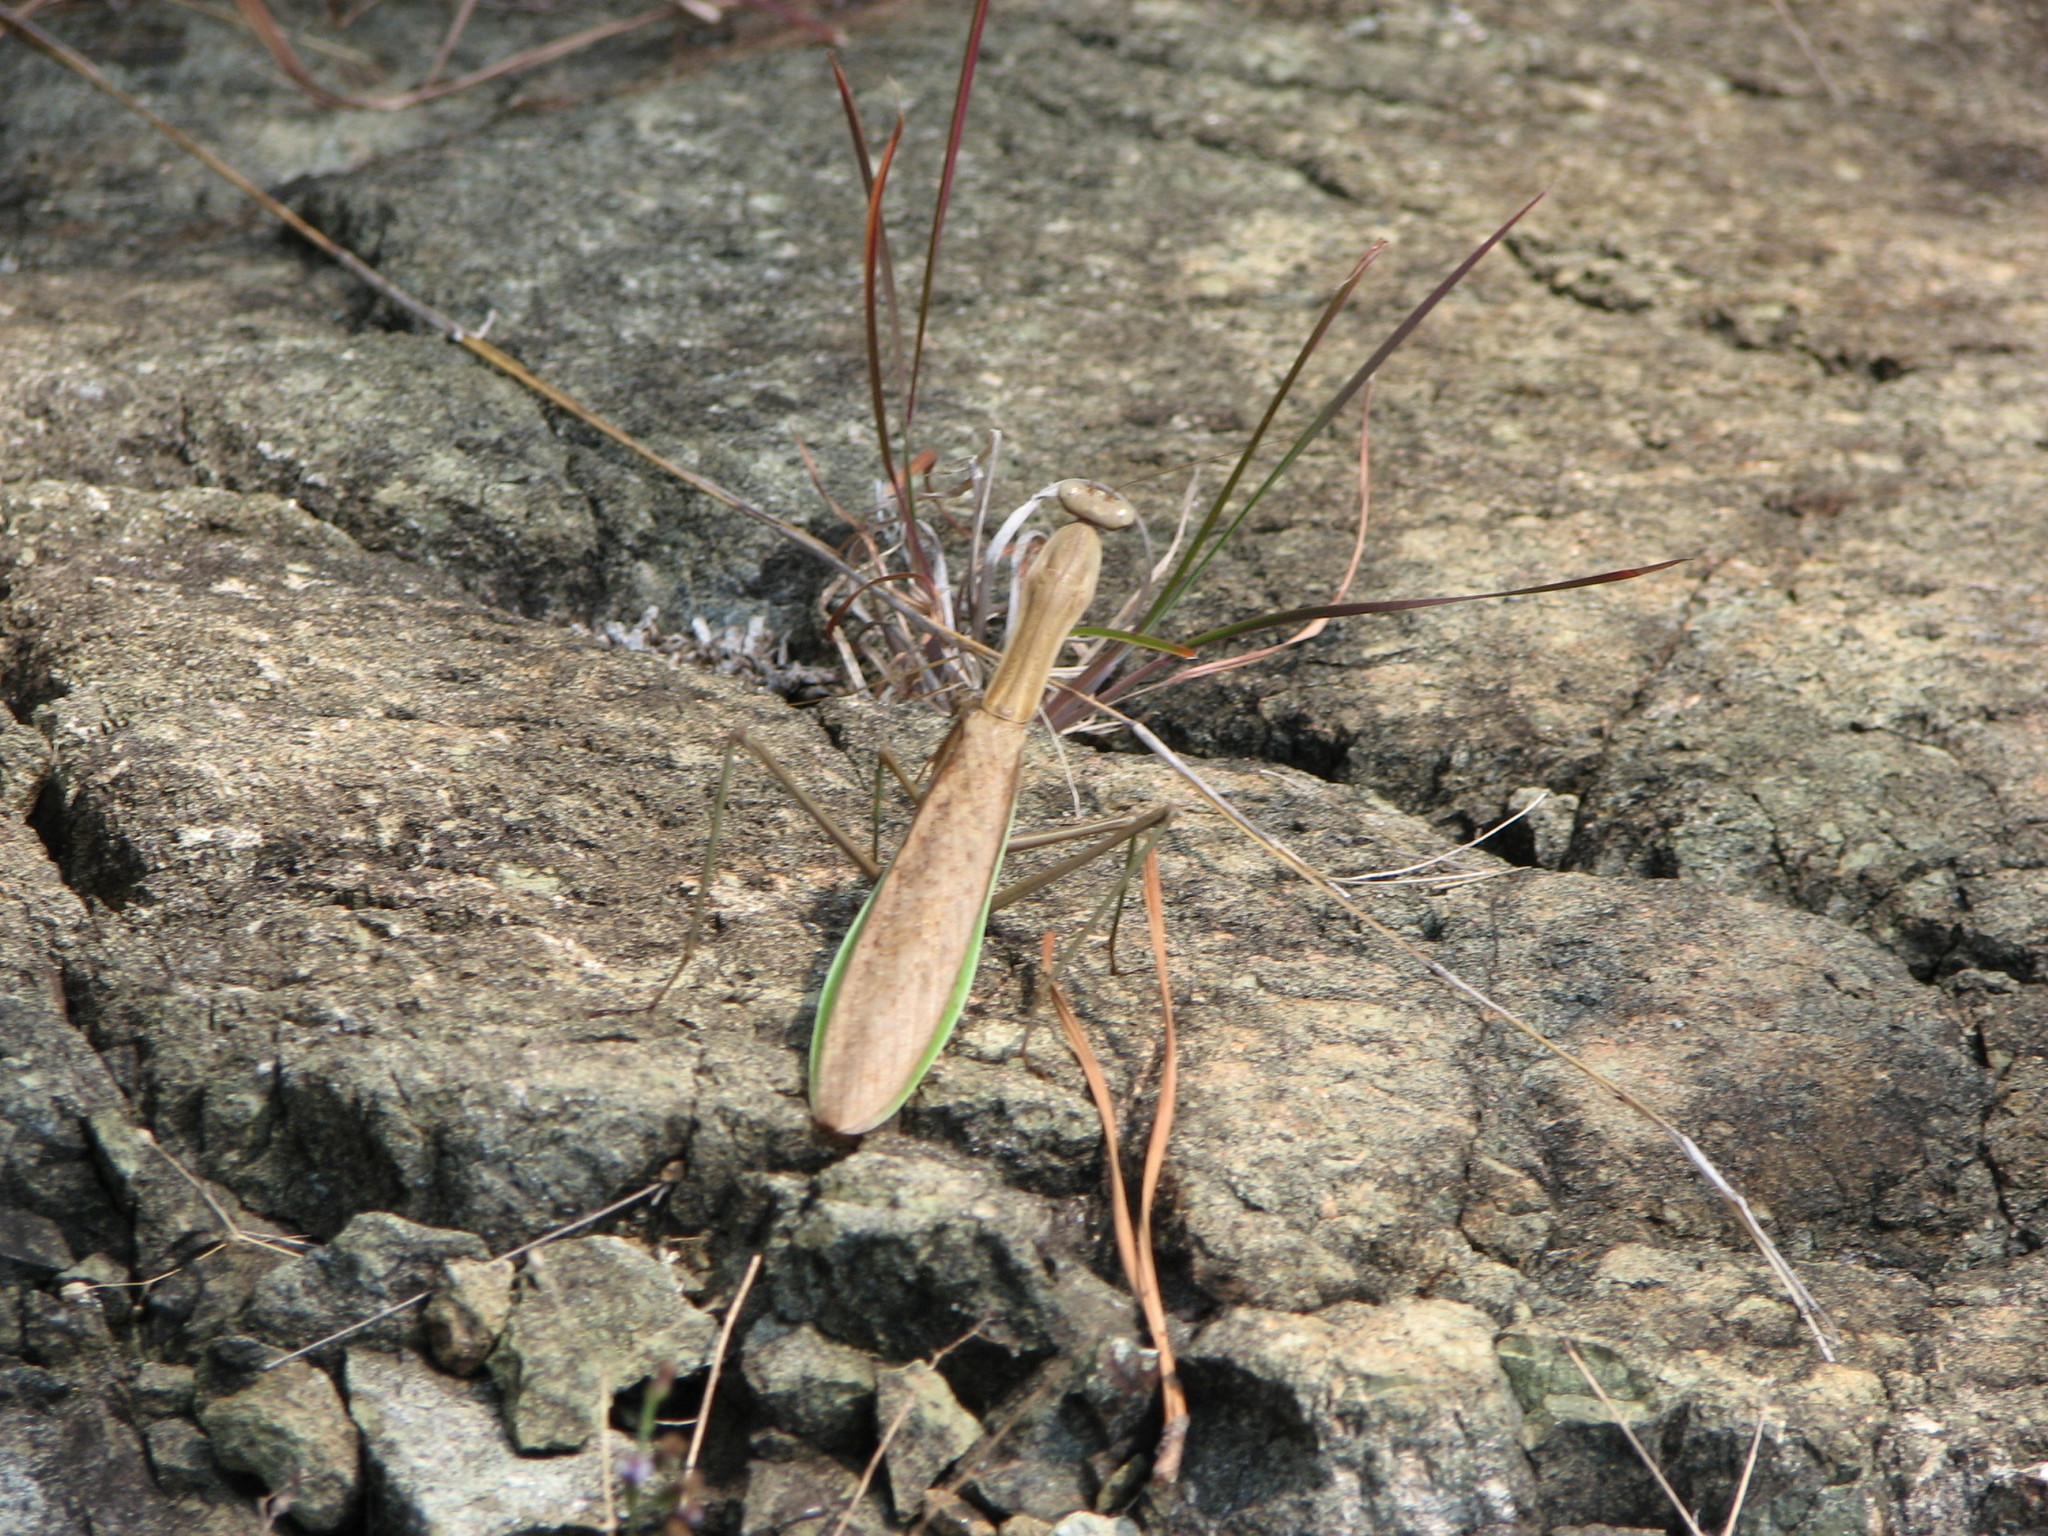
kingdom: Animalia
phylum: Arthropoda
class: Insecta
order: Mantodea
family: Mantidae
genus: Tenodera
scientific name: Tenodera sinensis
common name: Chinese mantis
